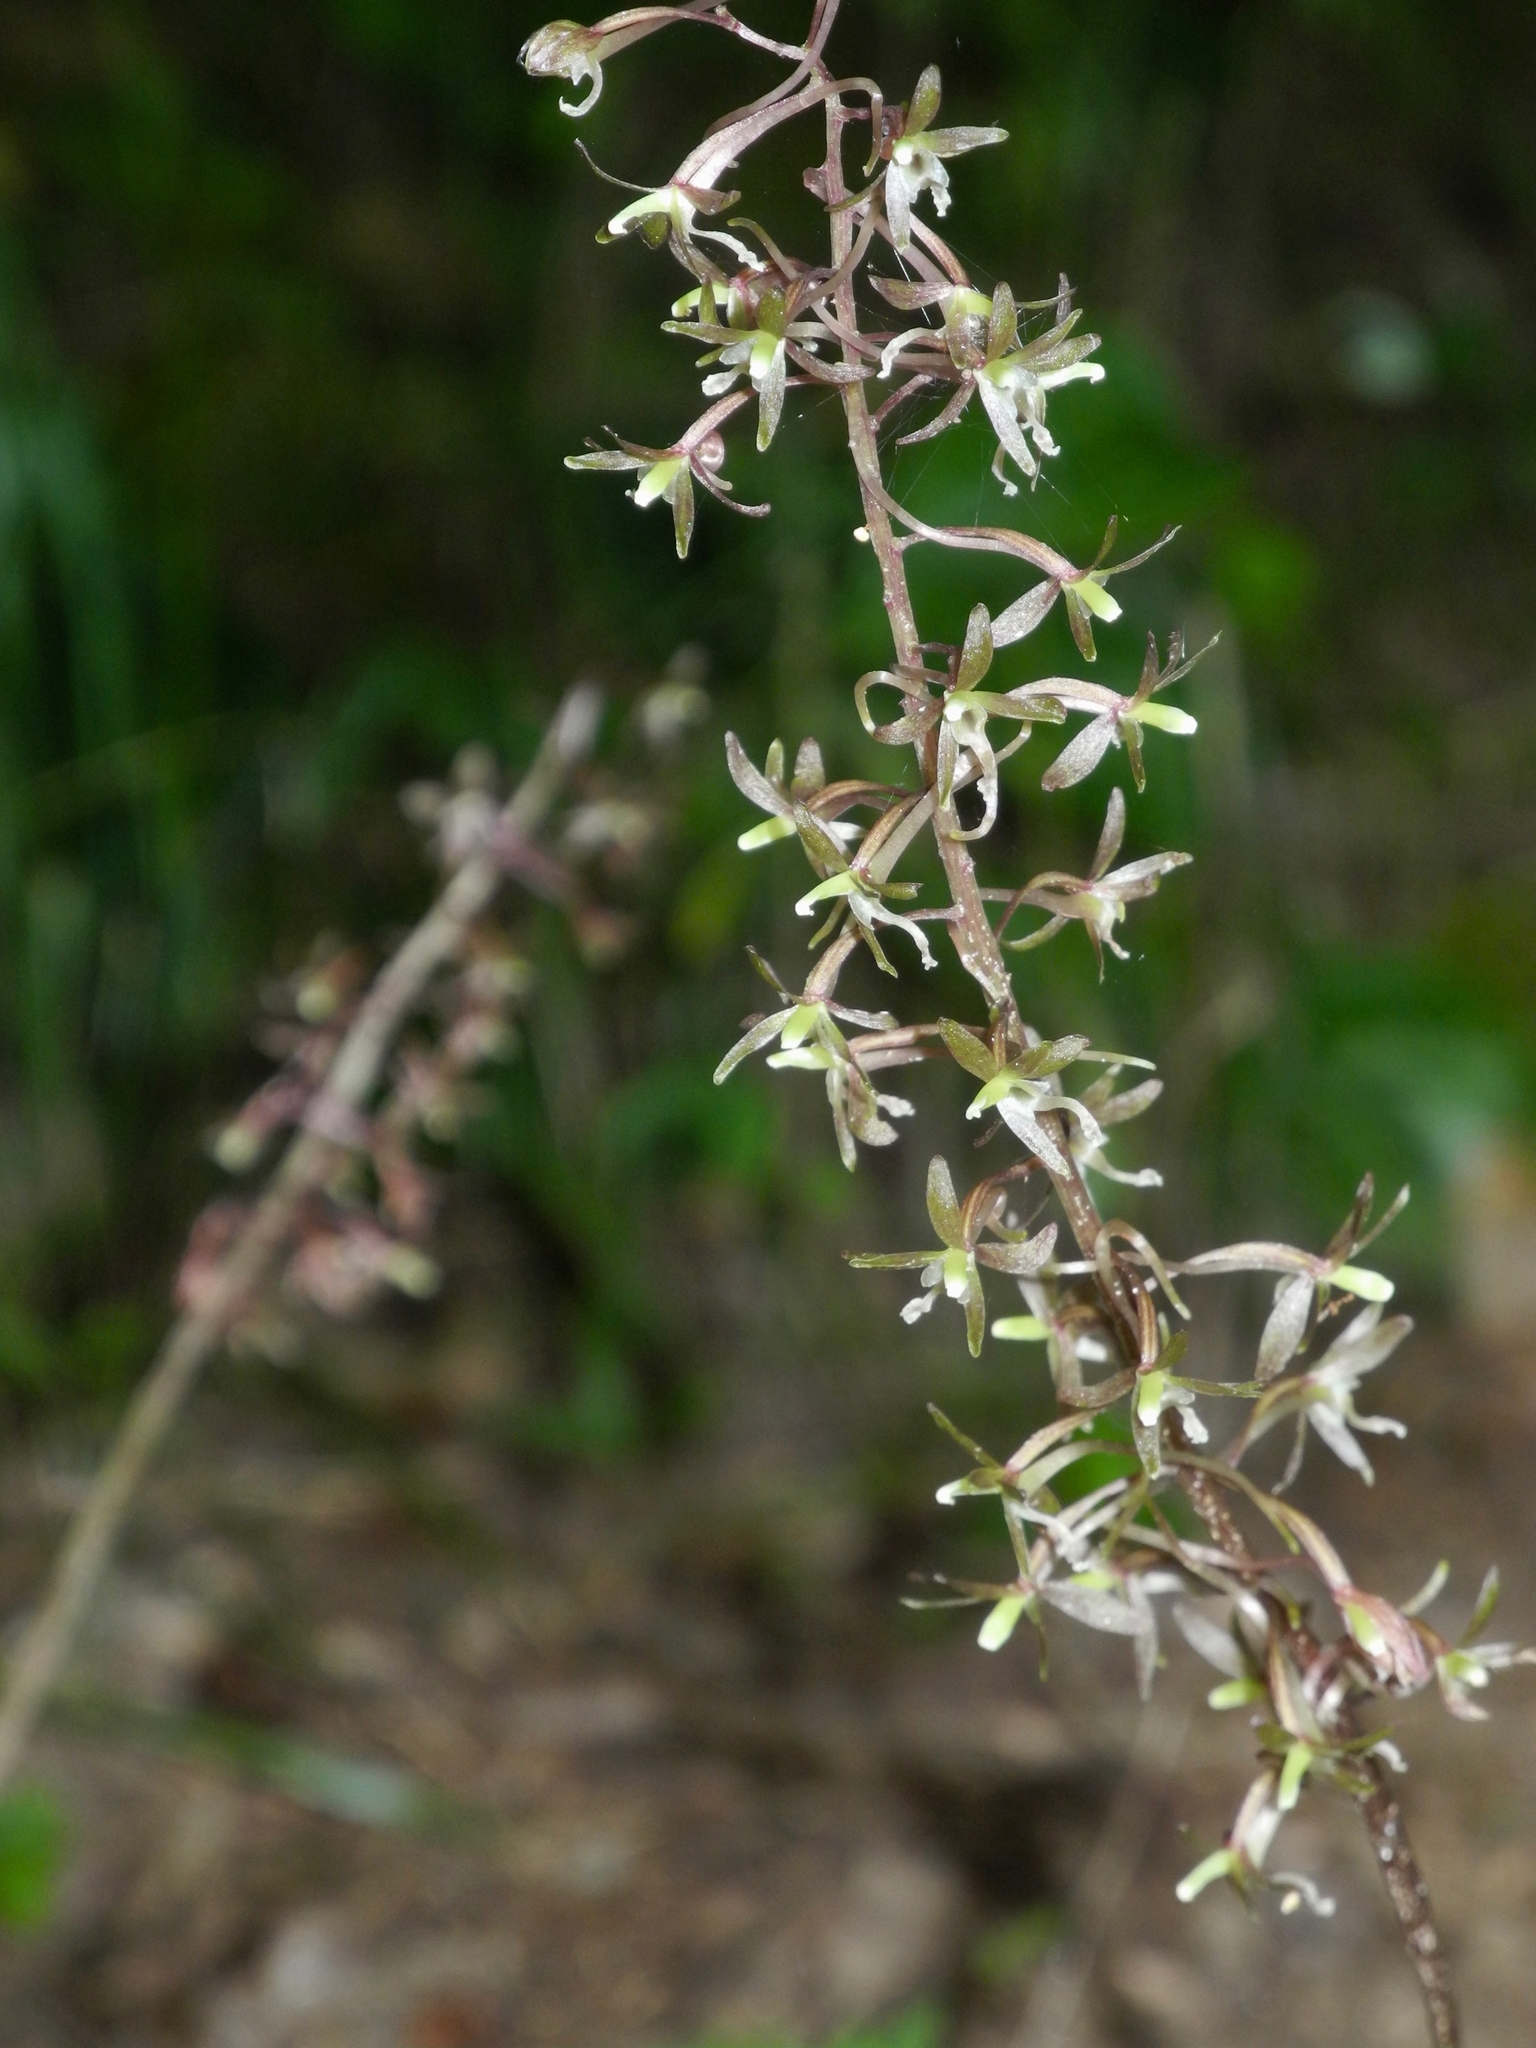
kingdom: Plantae
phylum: Tracheophyta
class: Liliopsida
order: Asparagales
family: Orchidaceae
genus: Tipularia
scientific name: Tipularia discolor
